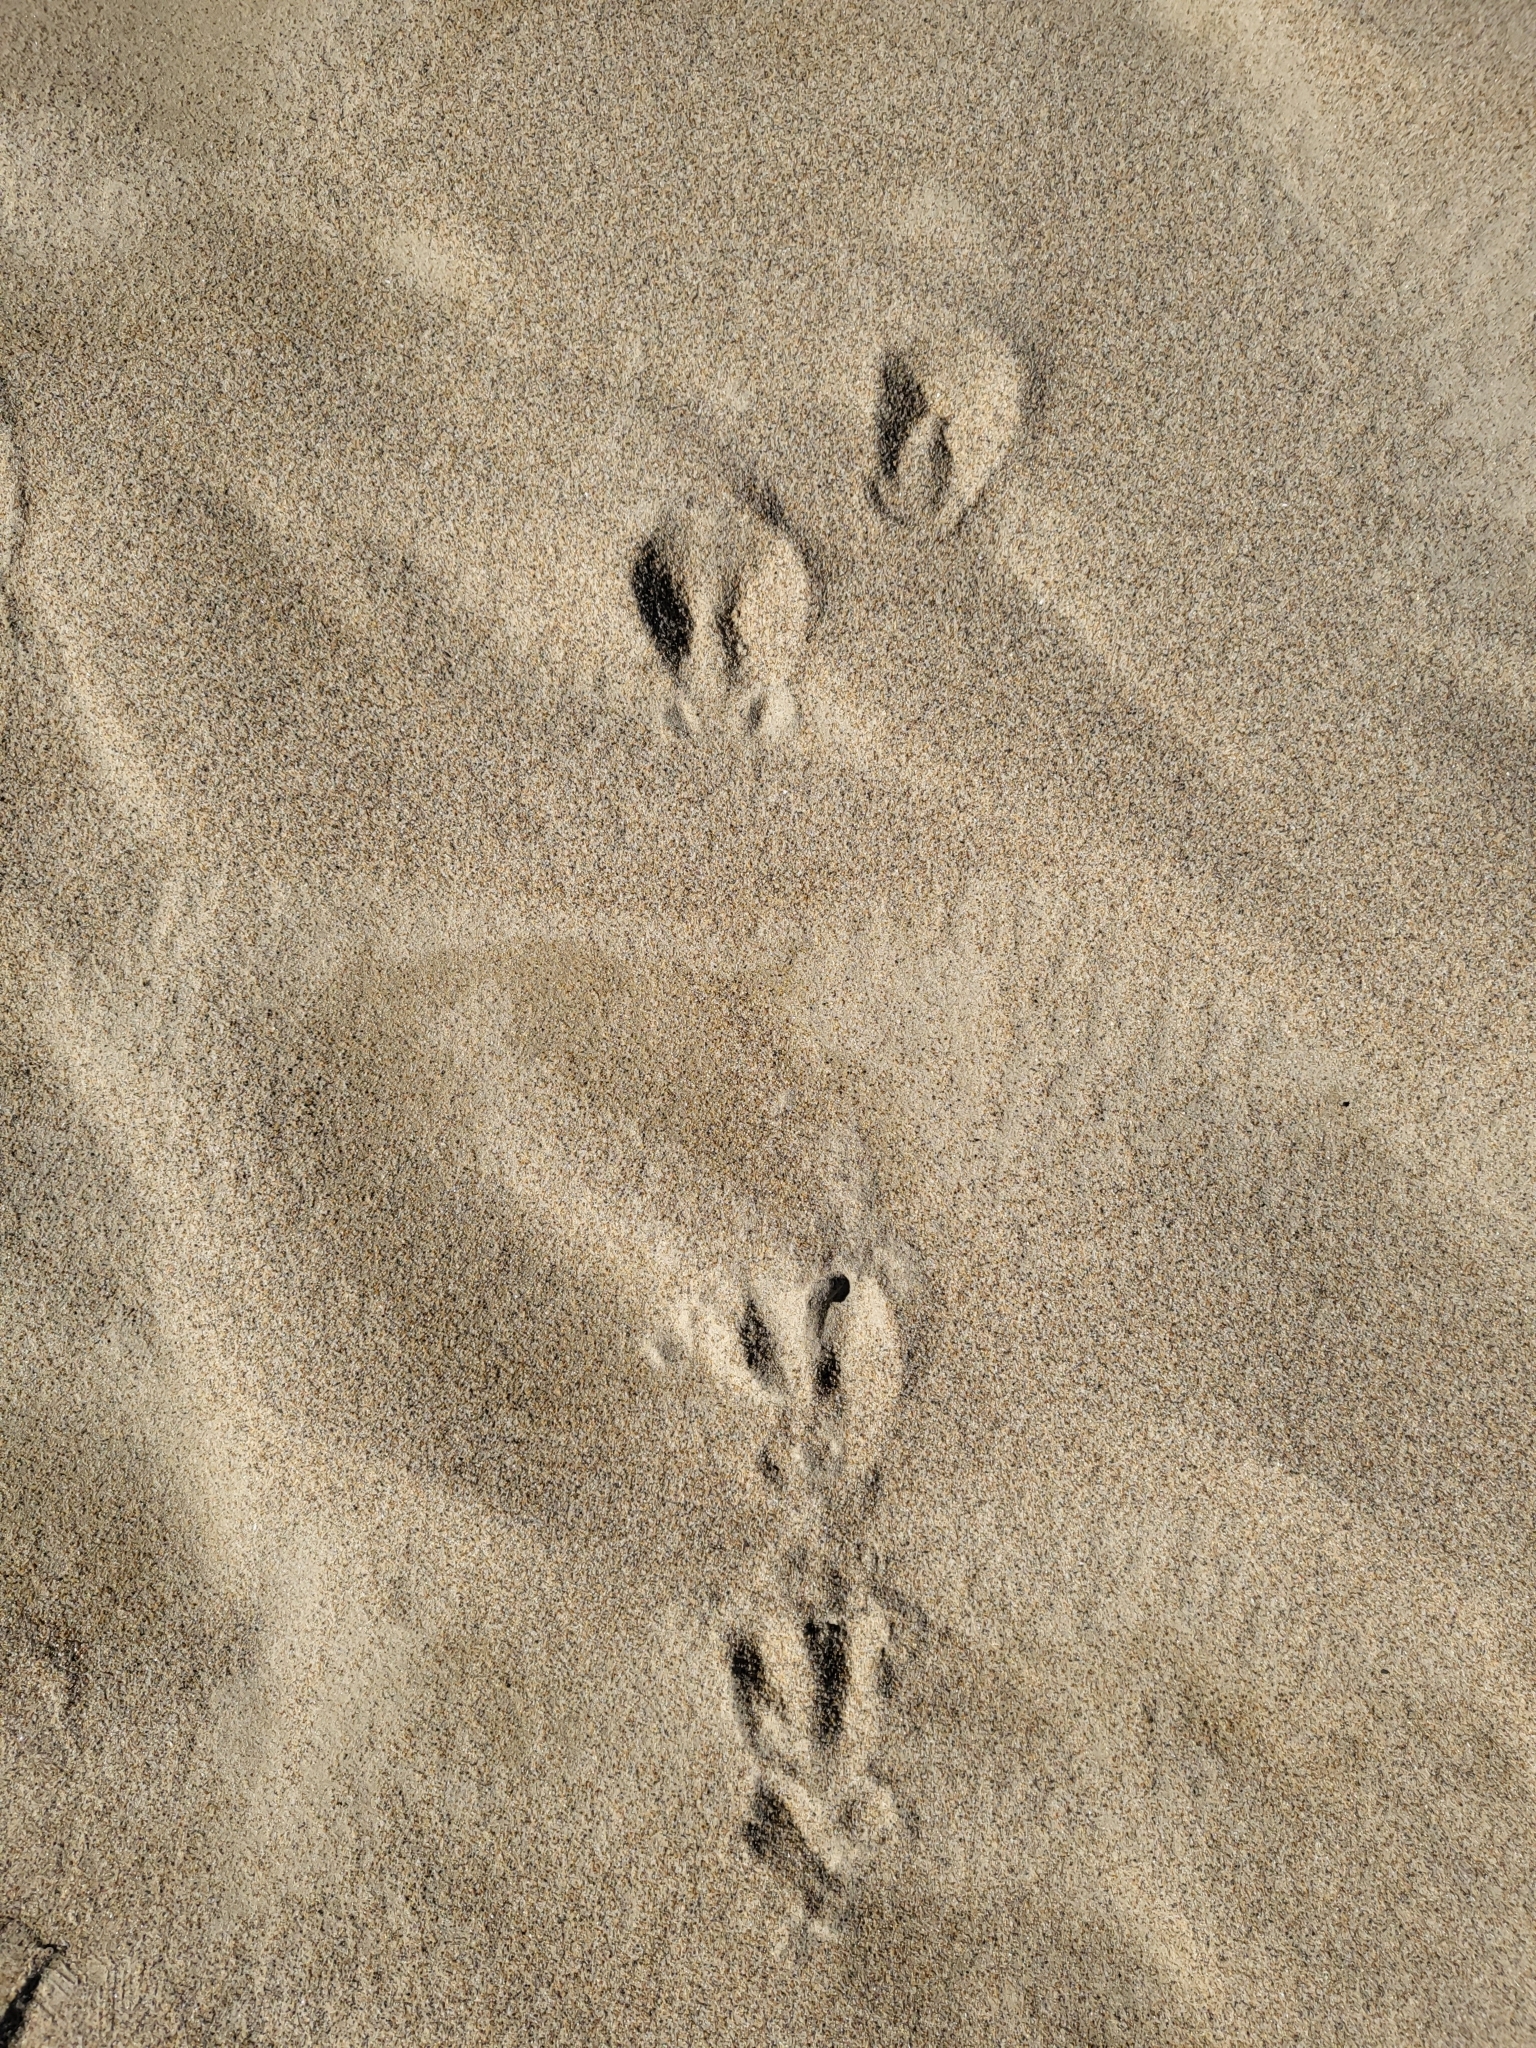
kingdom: Animalia
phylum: Chordata
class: Mammalia
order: Artiodactyla
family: Cervidae
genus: Odocoileus
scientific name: Odocoileus hemionus
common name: Mule deer
